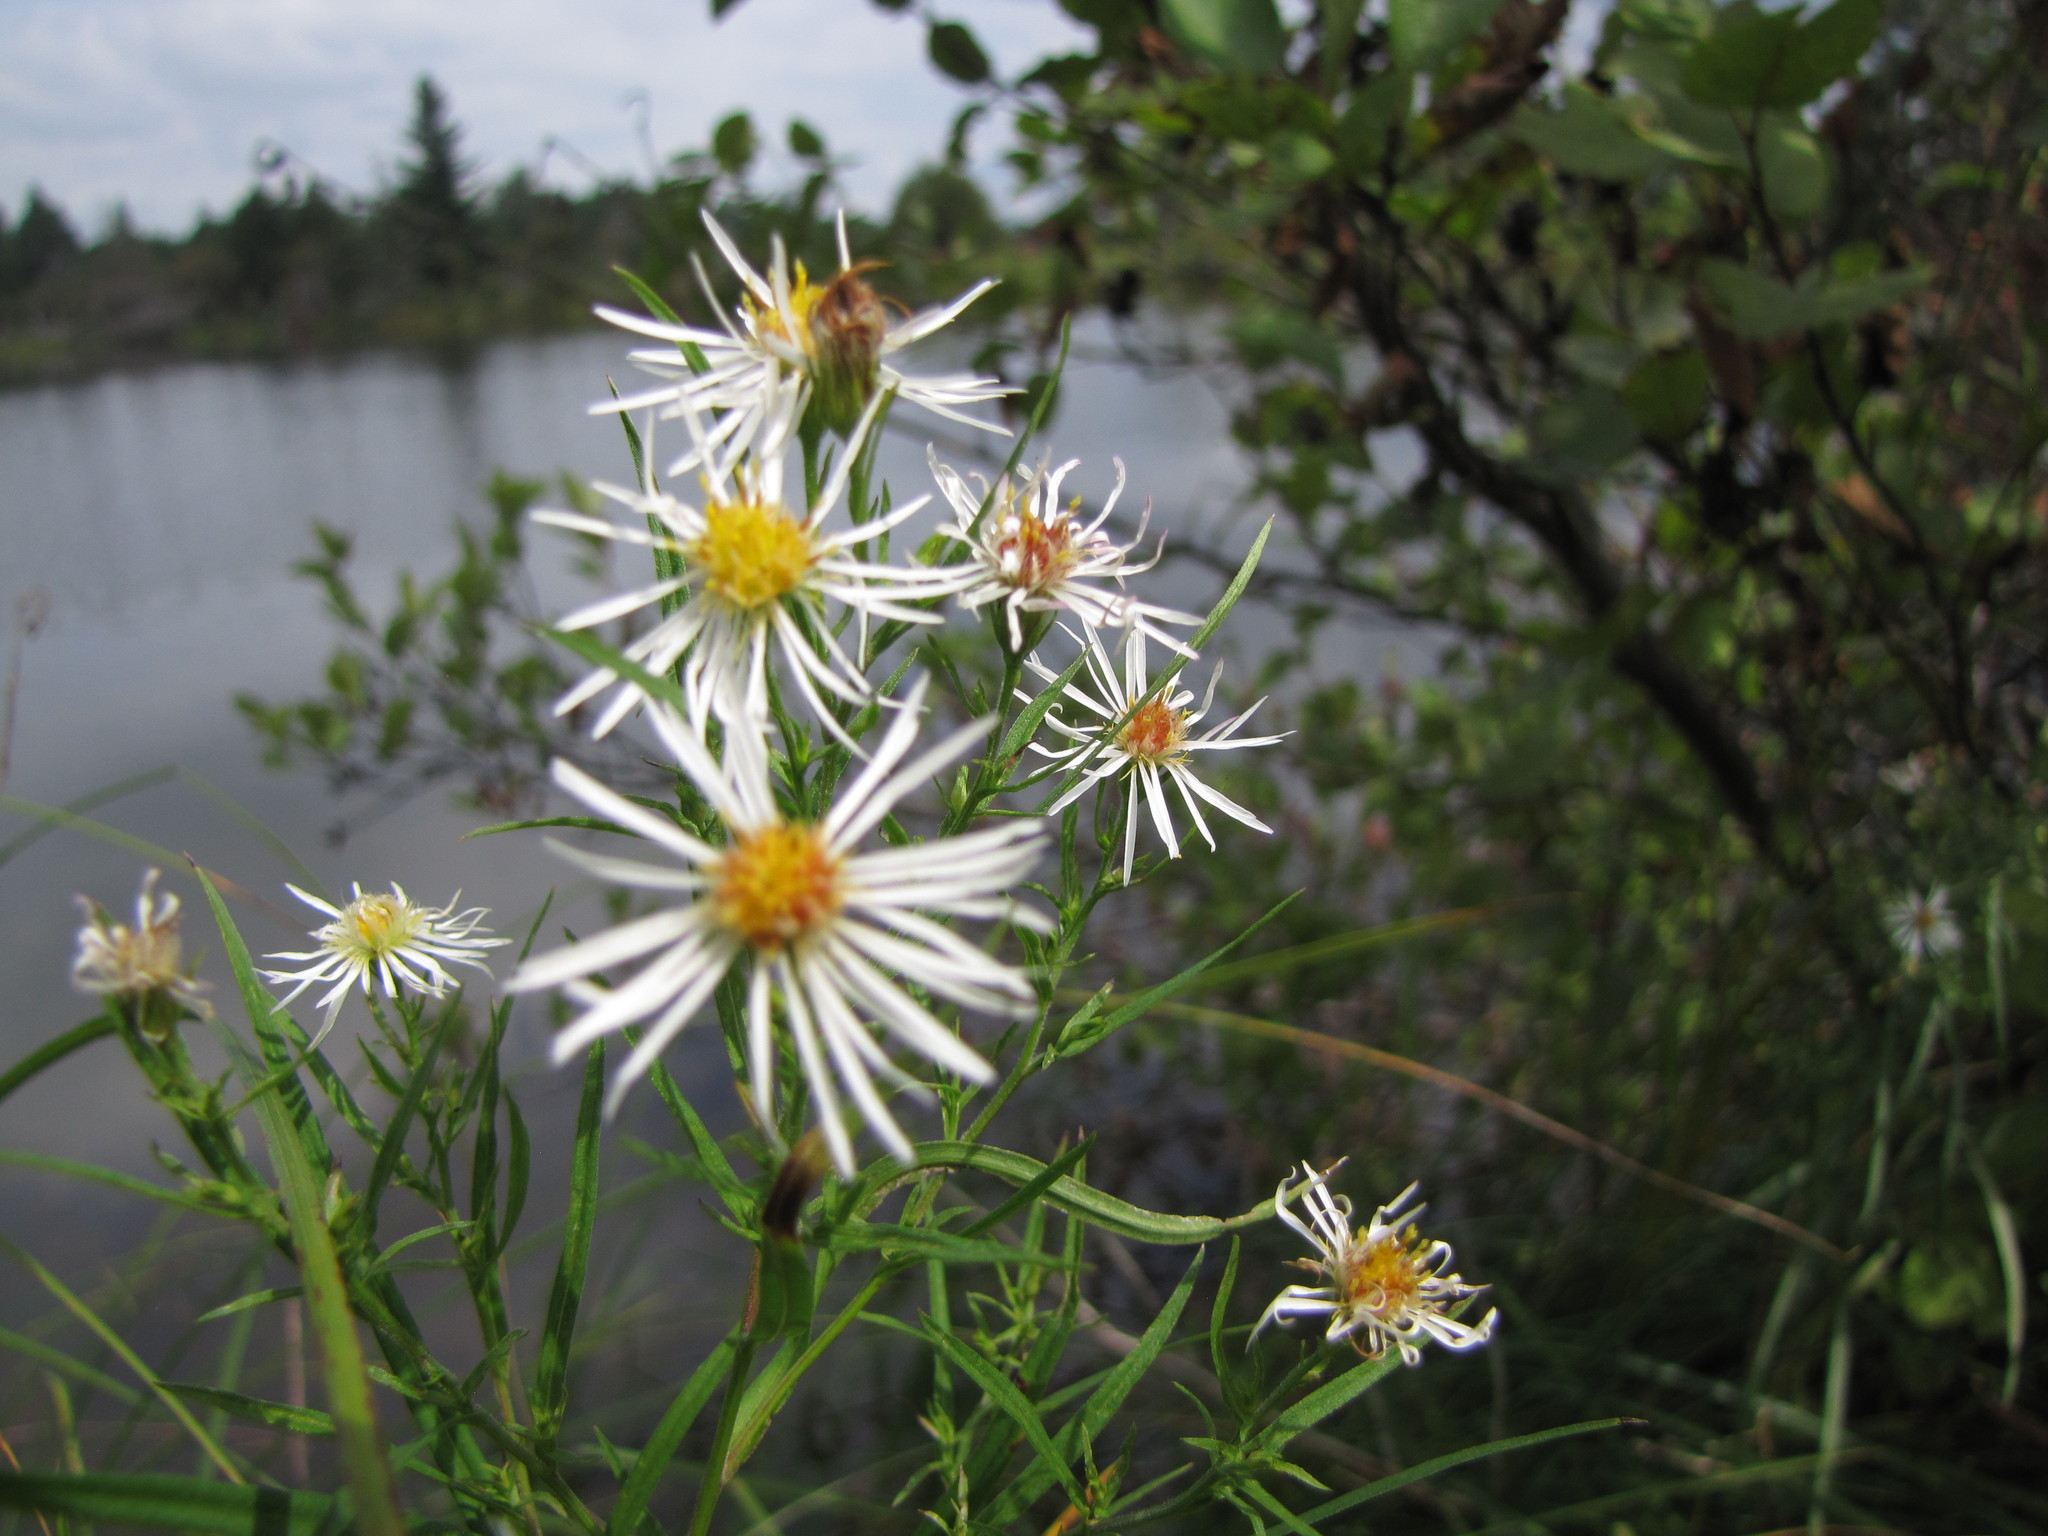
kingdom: Plantae
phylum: Tracheophyta
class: Magnoliopsida
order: Asterales
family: Asteraceae
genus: Symphyotrichum
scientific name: Symphyotrichum boreale
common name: Northern bog aster
